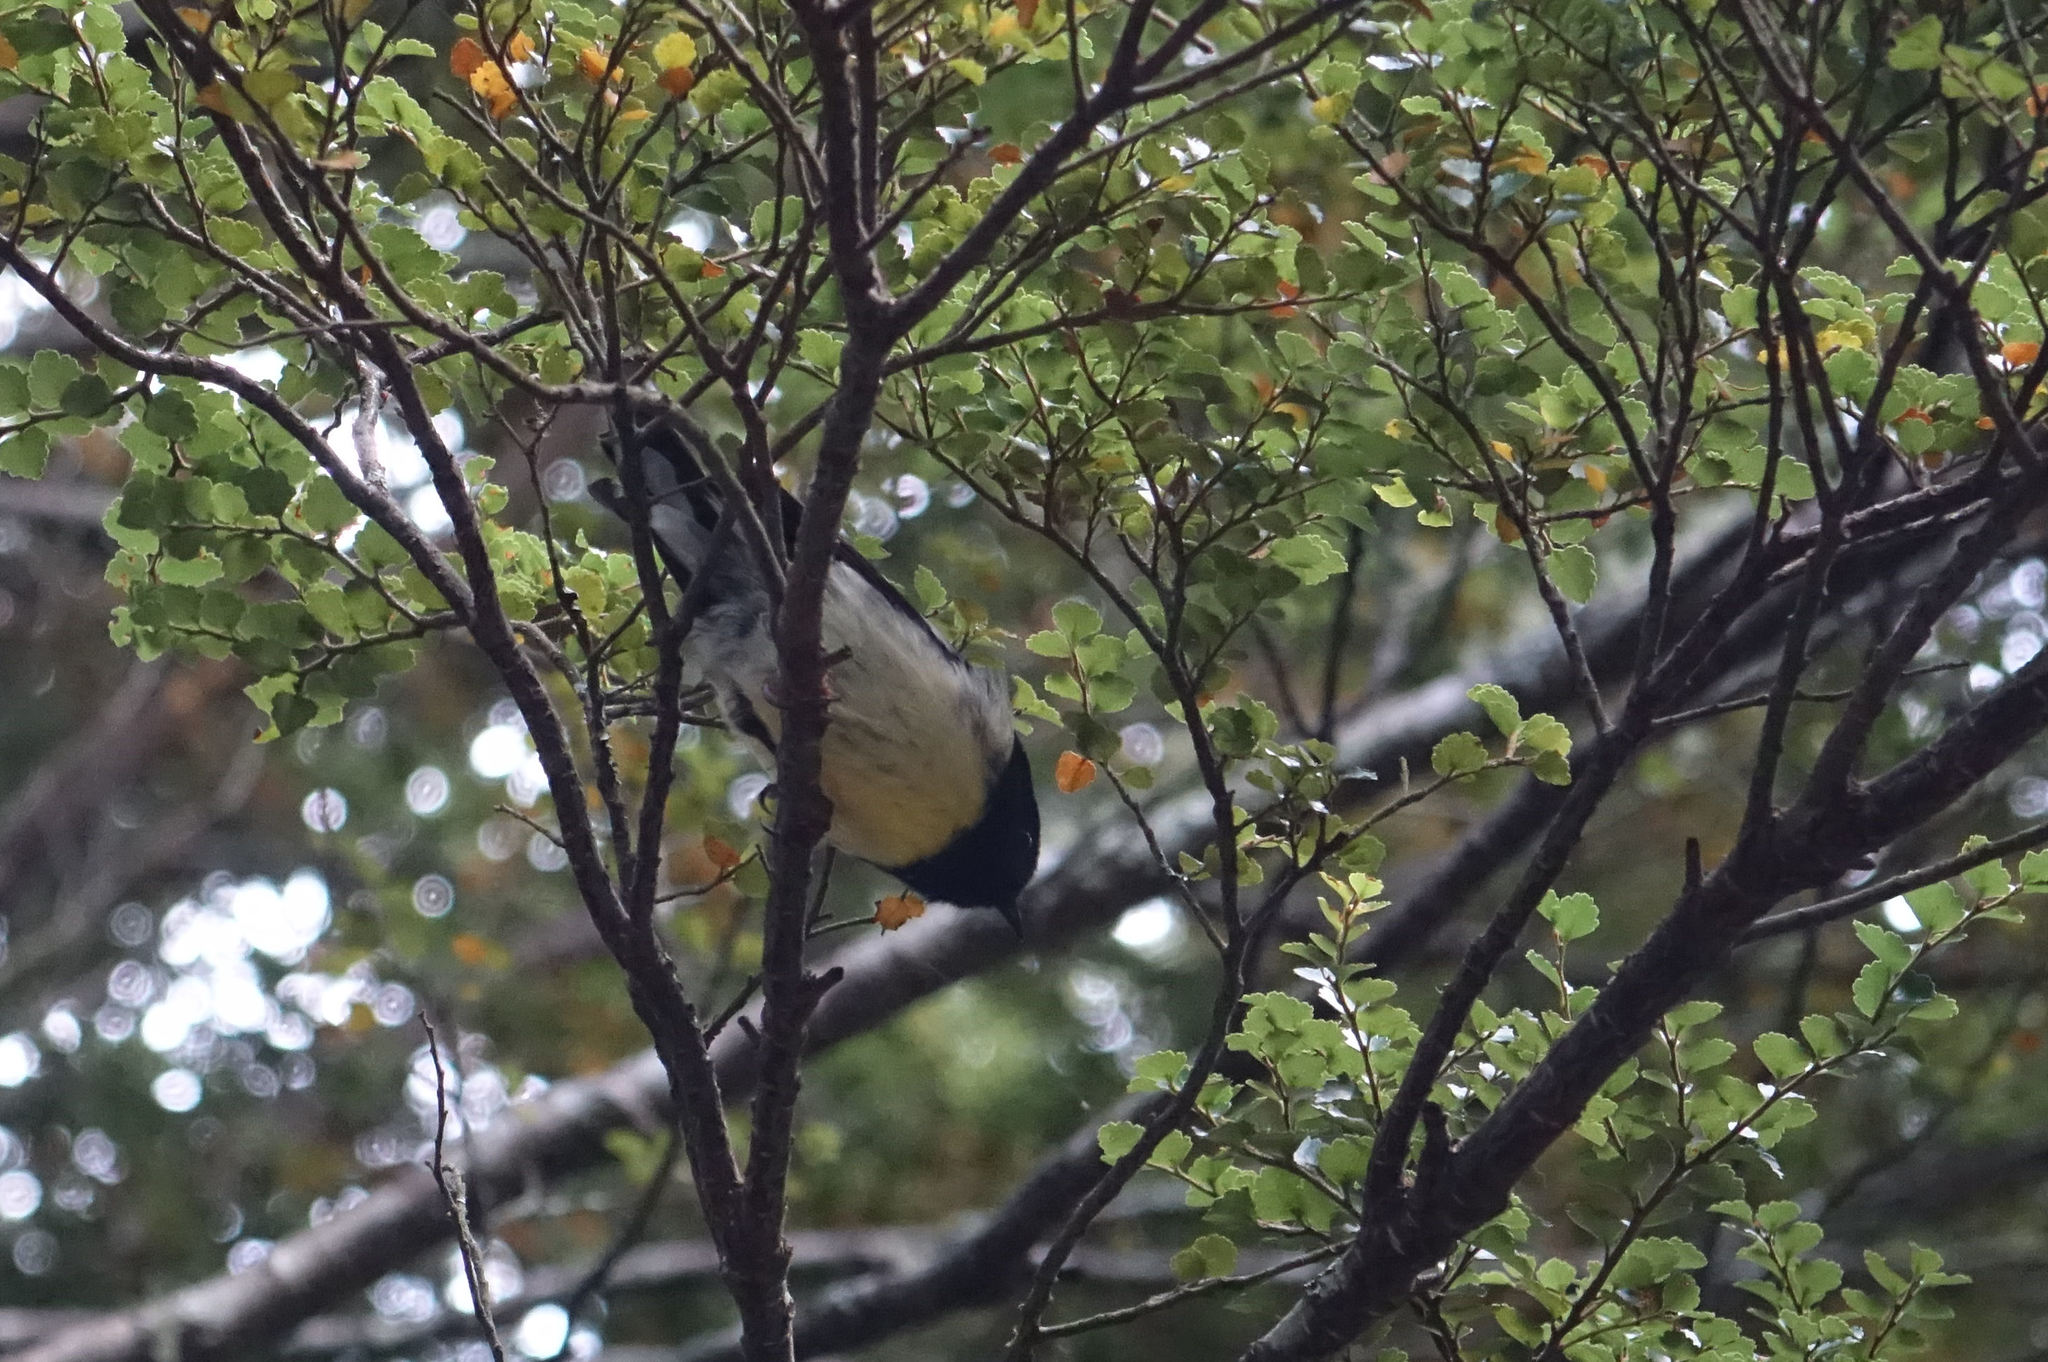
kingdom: Animalia
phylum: Chordata
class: Aves
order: Passeriformes
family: Petroicidae
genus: Petroica
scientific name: Petroica macrocephala
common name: Tomtit
